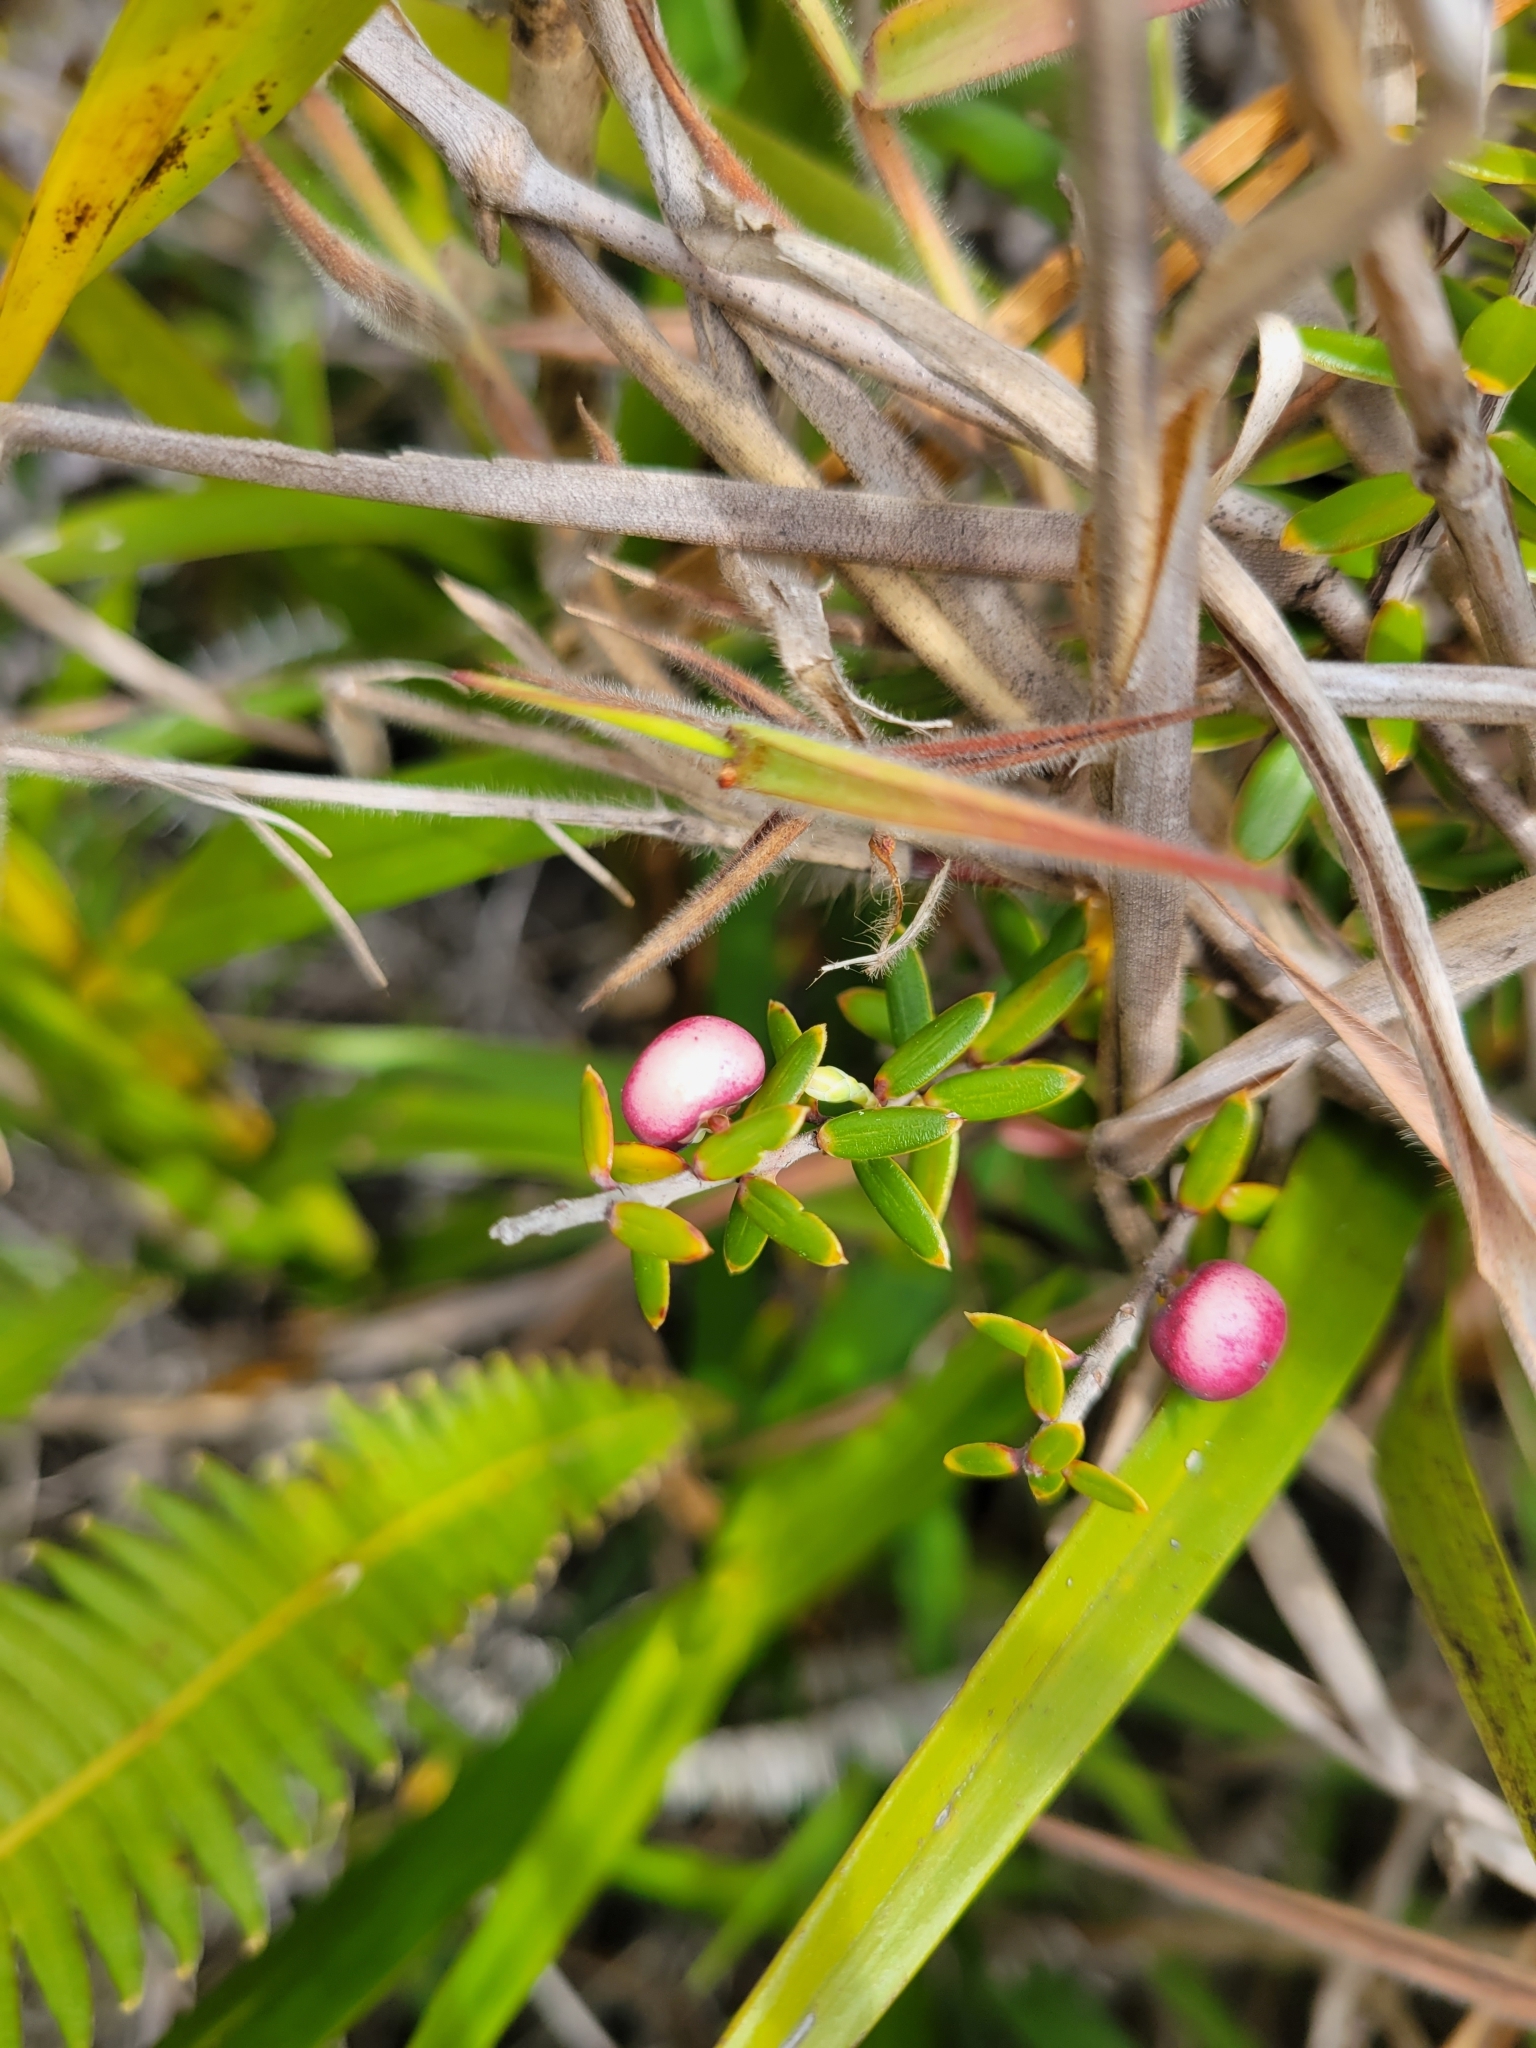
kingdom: Plantae
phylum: Tracheophyta
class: Magnoliopsida
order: Ericales
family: Ericaceae
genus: Leptecophylla
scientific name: Leptecophylla tameiameiae
